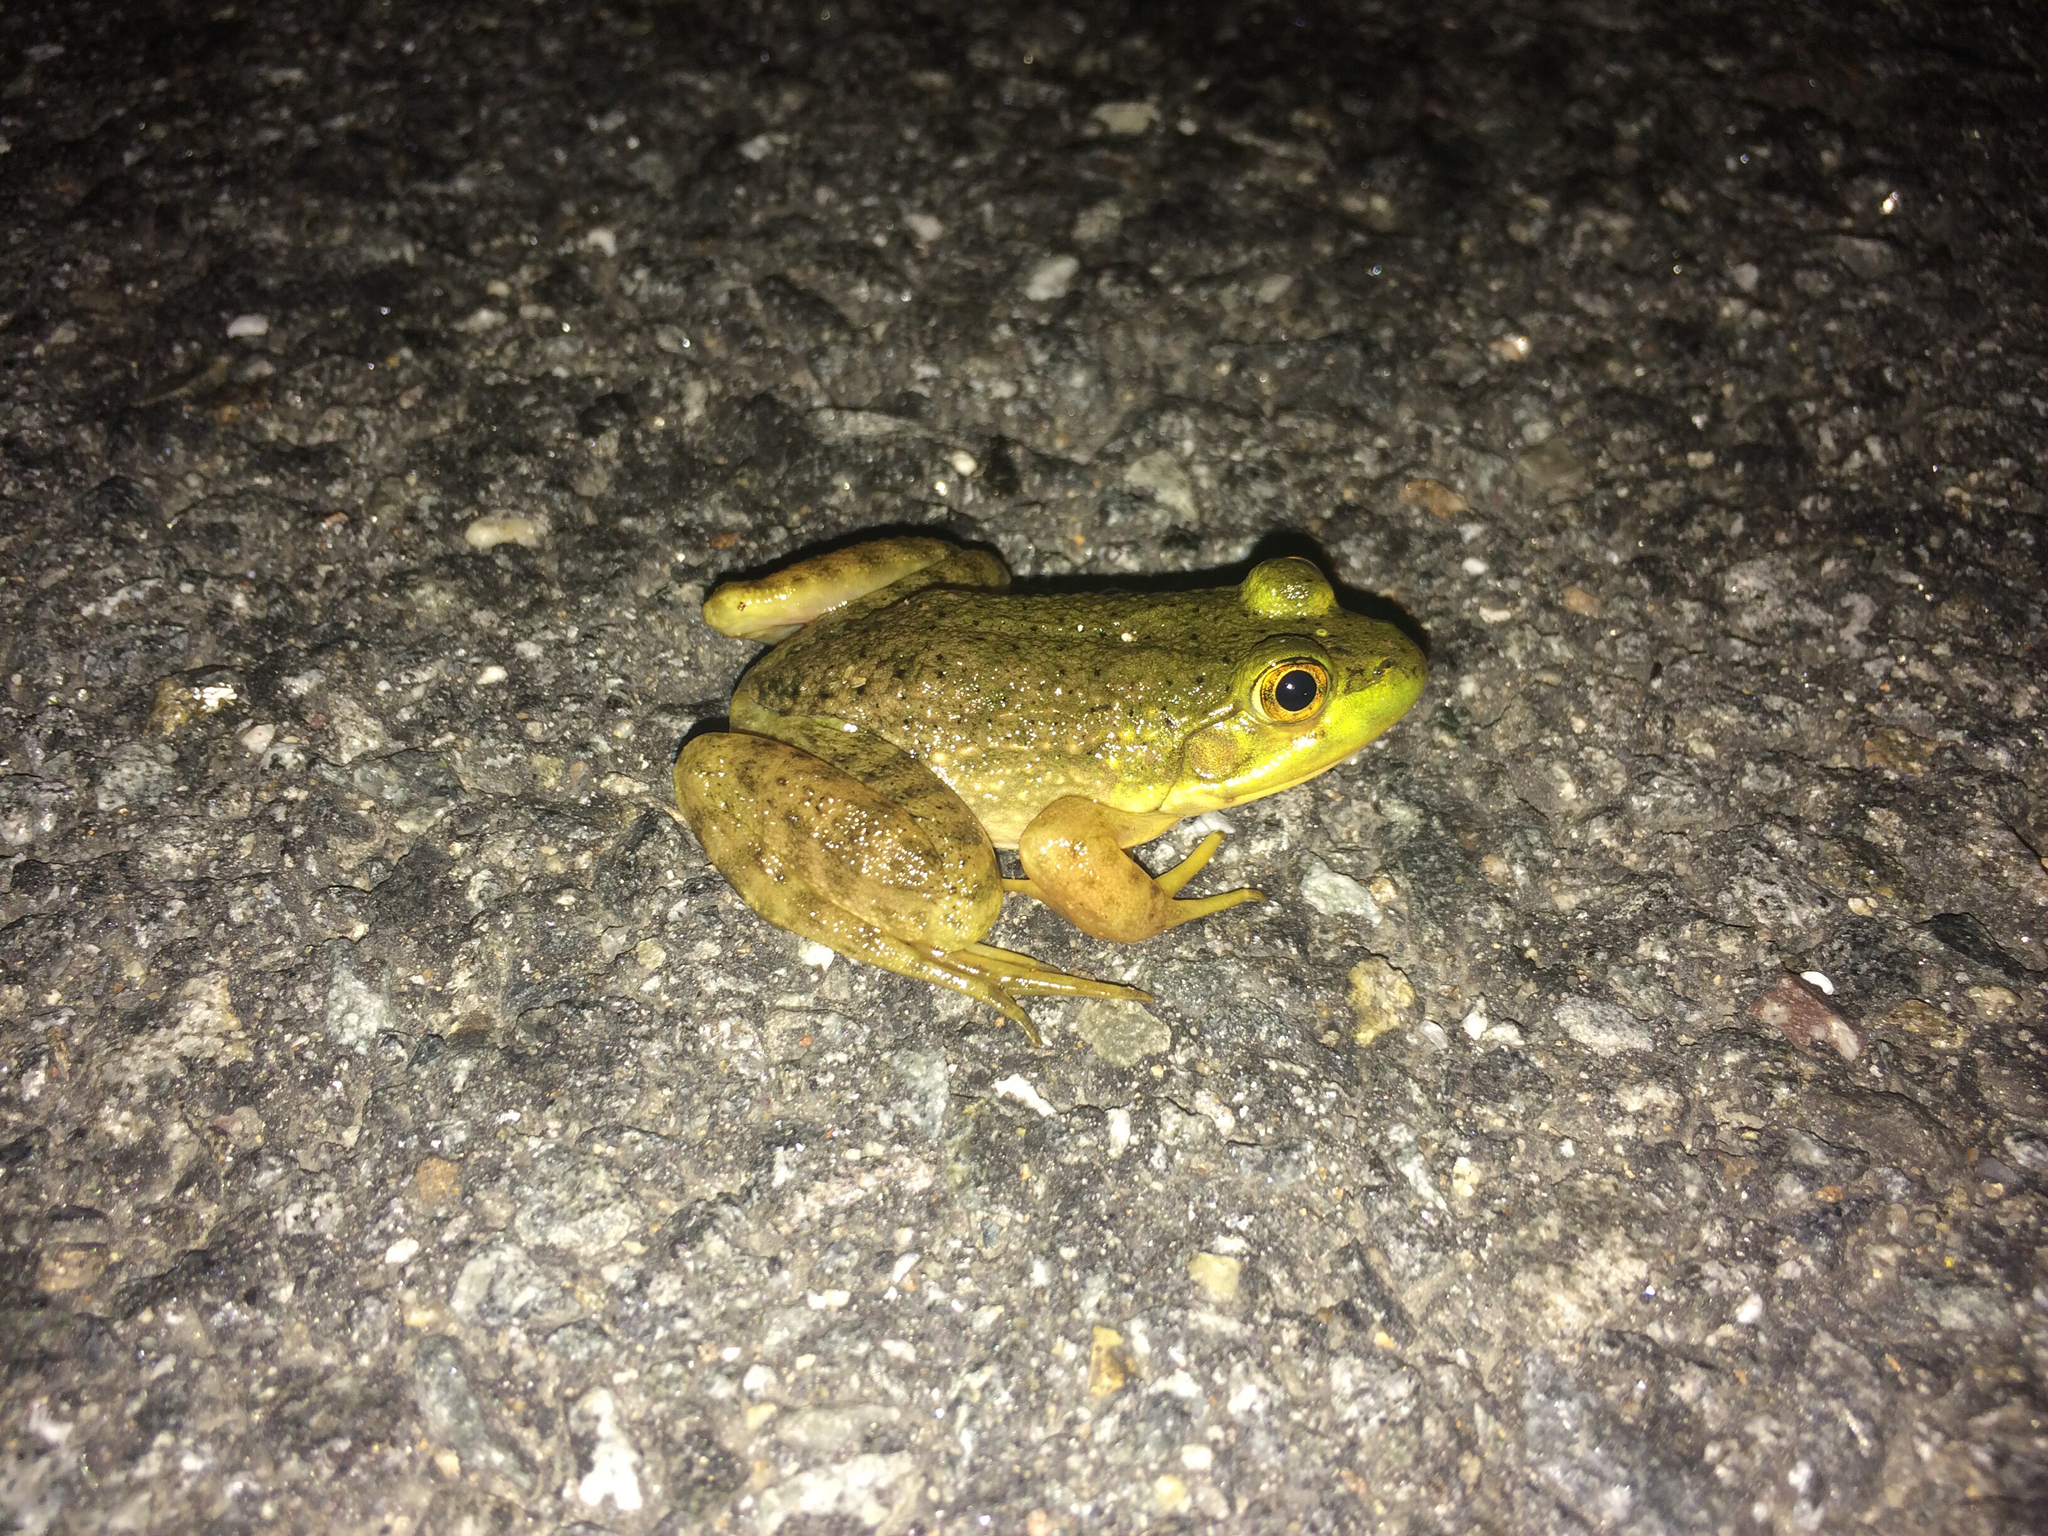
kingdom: Animalia
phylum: Chordata
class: Amphibia
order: Anura
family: Ranidae
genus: Lithobates
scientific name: Lithobates catesbeianus
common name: American bullfrog
